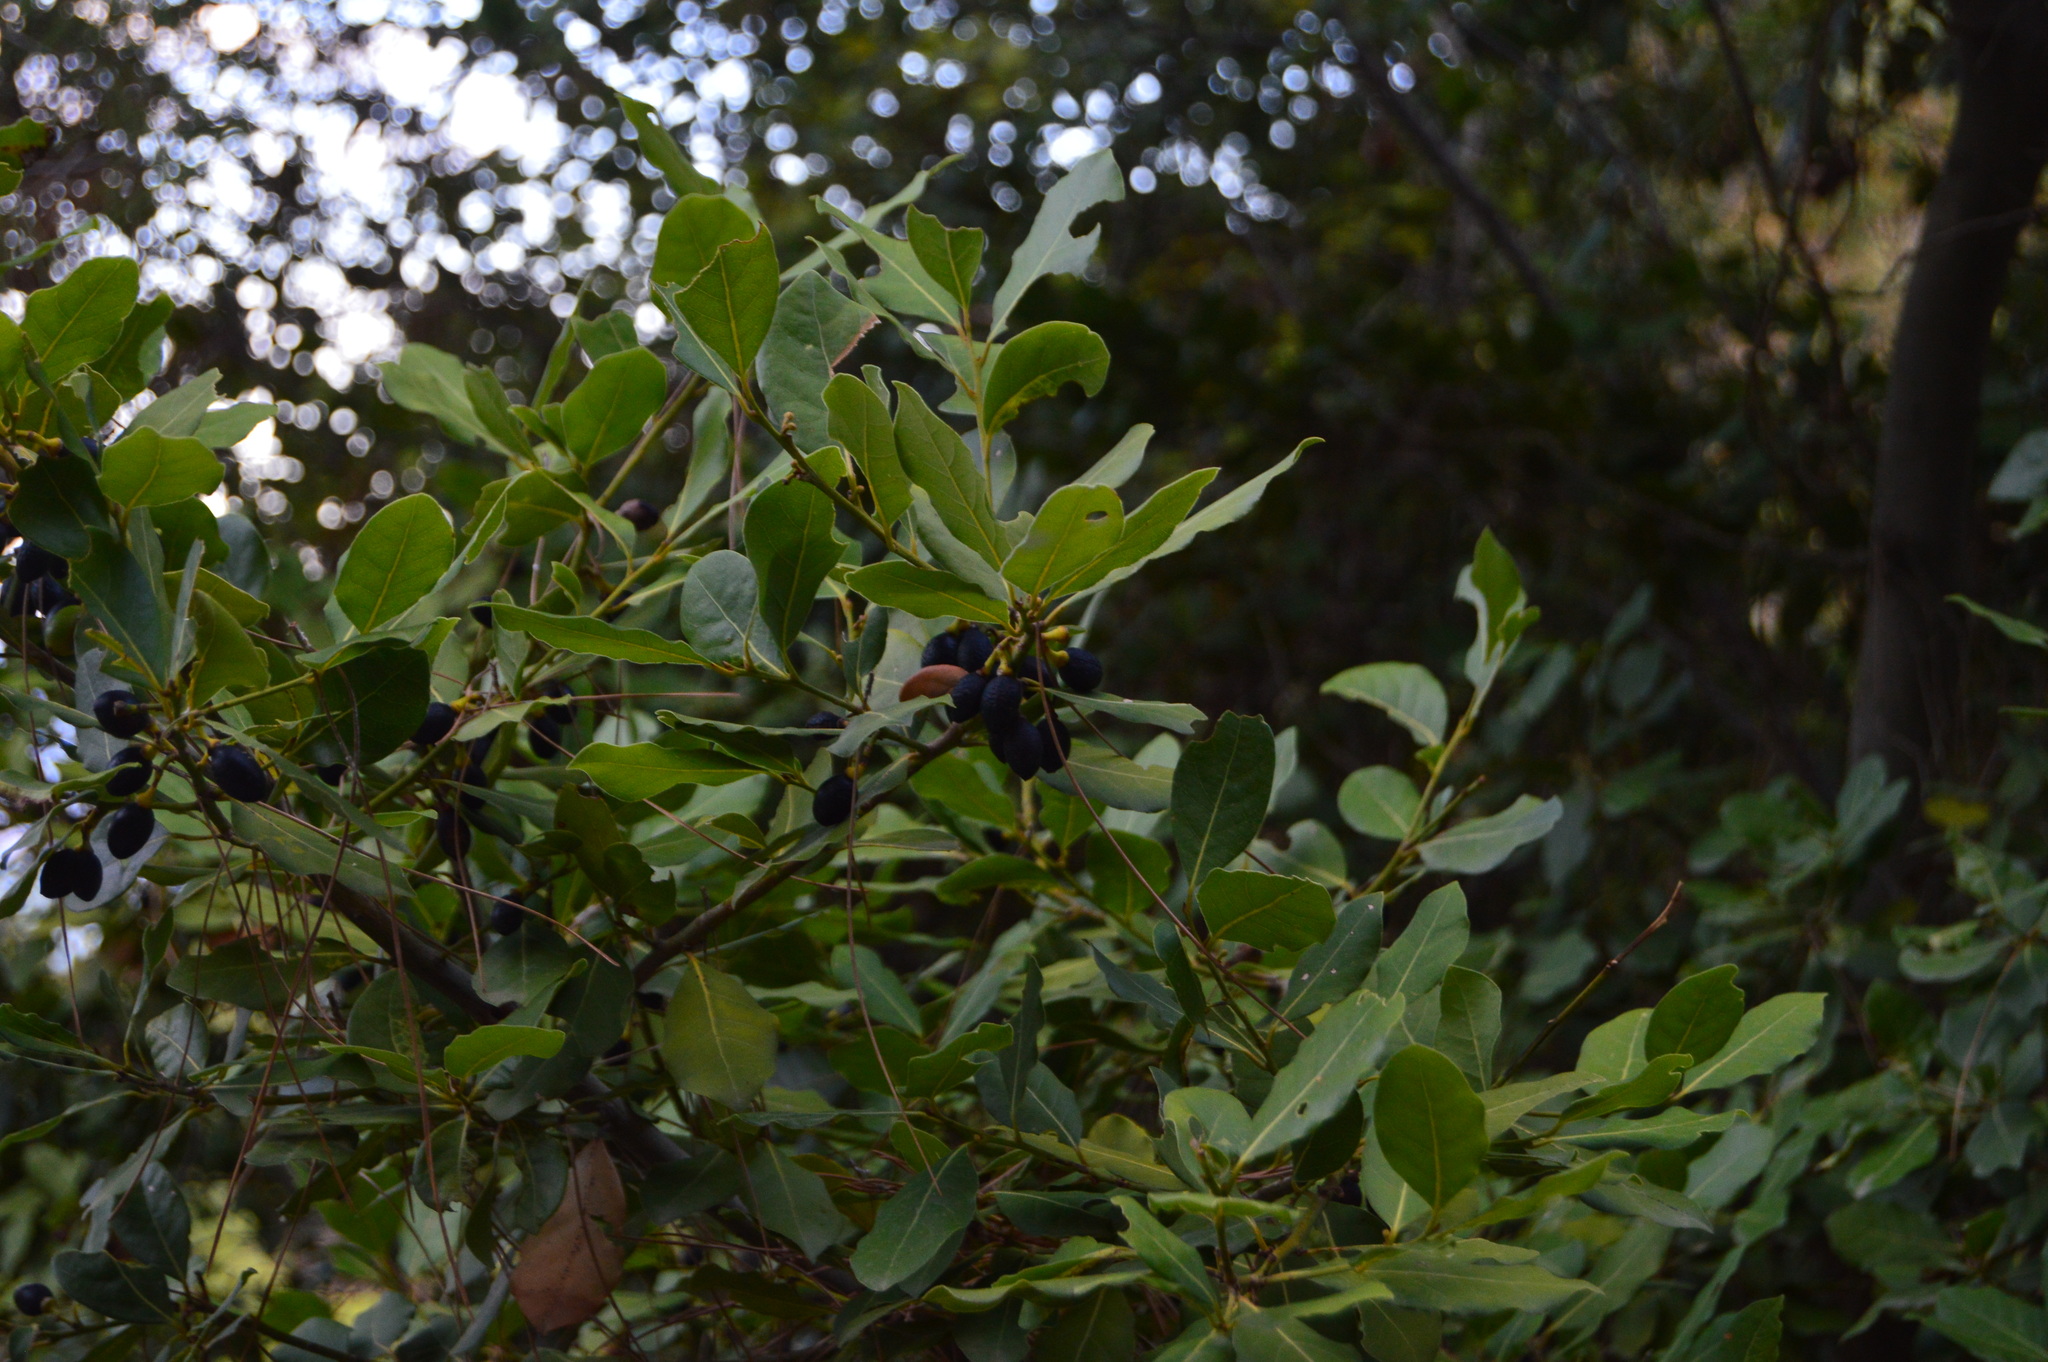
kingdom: Plantae
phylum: Tracheophyta
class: Magnoliopsida
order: Laurales
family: Lauraceae
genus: Laurus
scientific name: Laurus nobilis
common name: Bay
